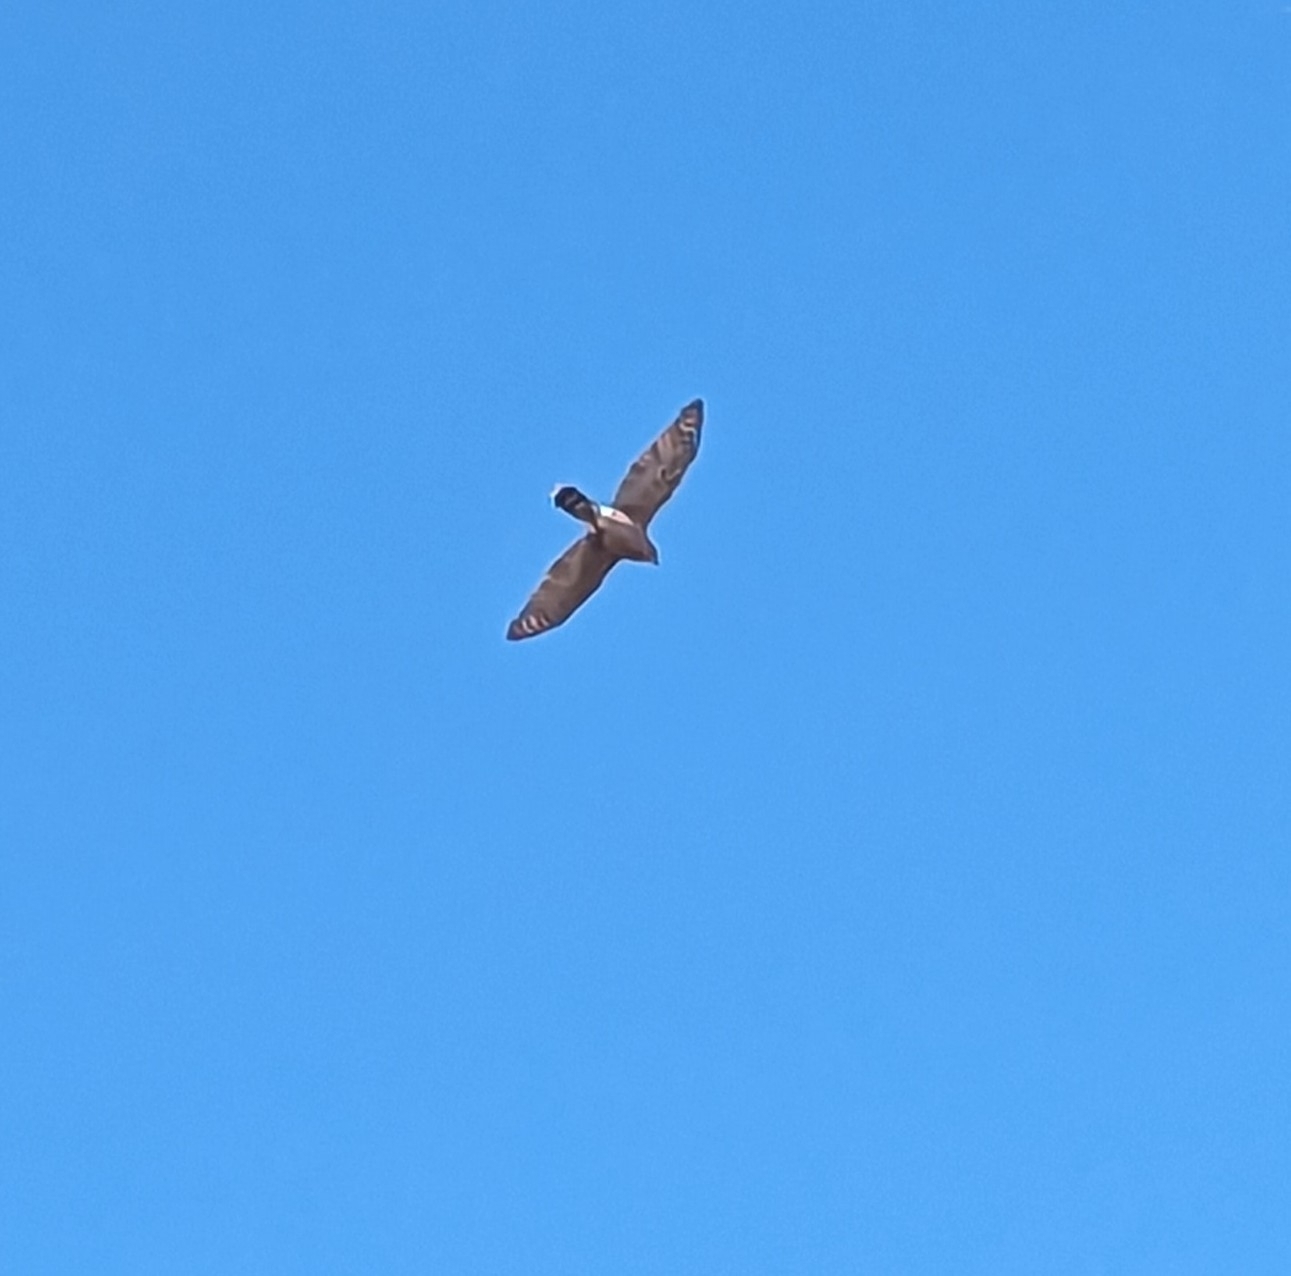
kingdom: Animalia
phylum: Chordata
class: Aves
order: Accipitriformes
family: Accipitridae
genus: Accipiter
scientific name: Accipiter cooperii
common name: Cooper's hawk
